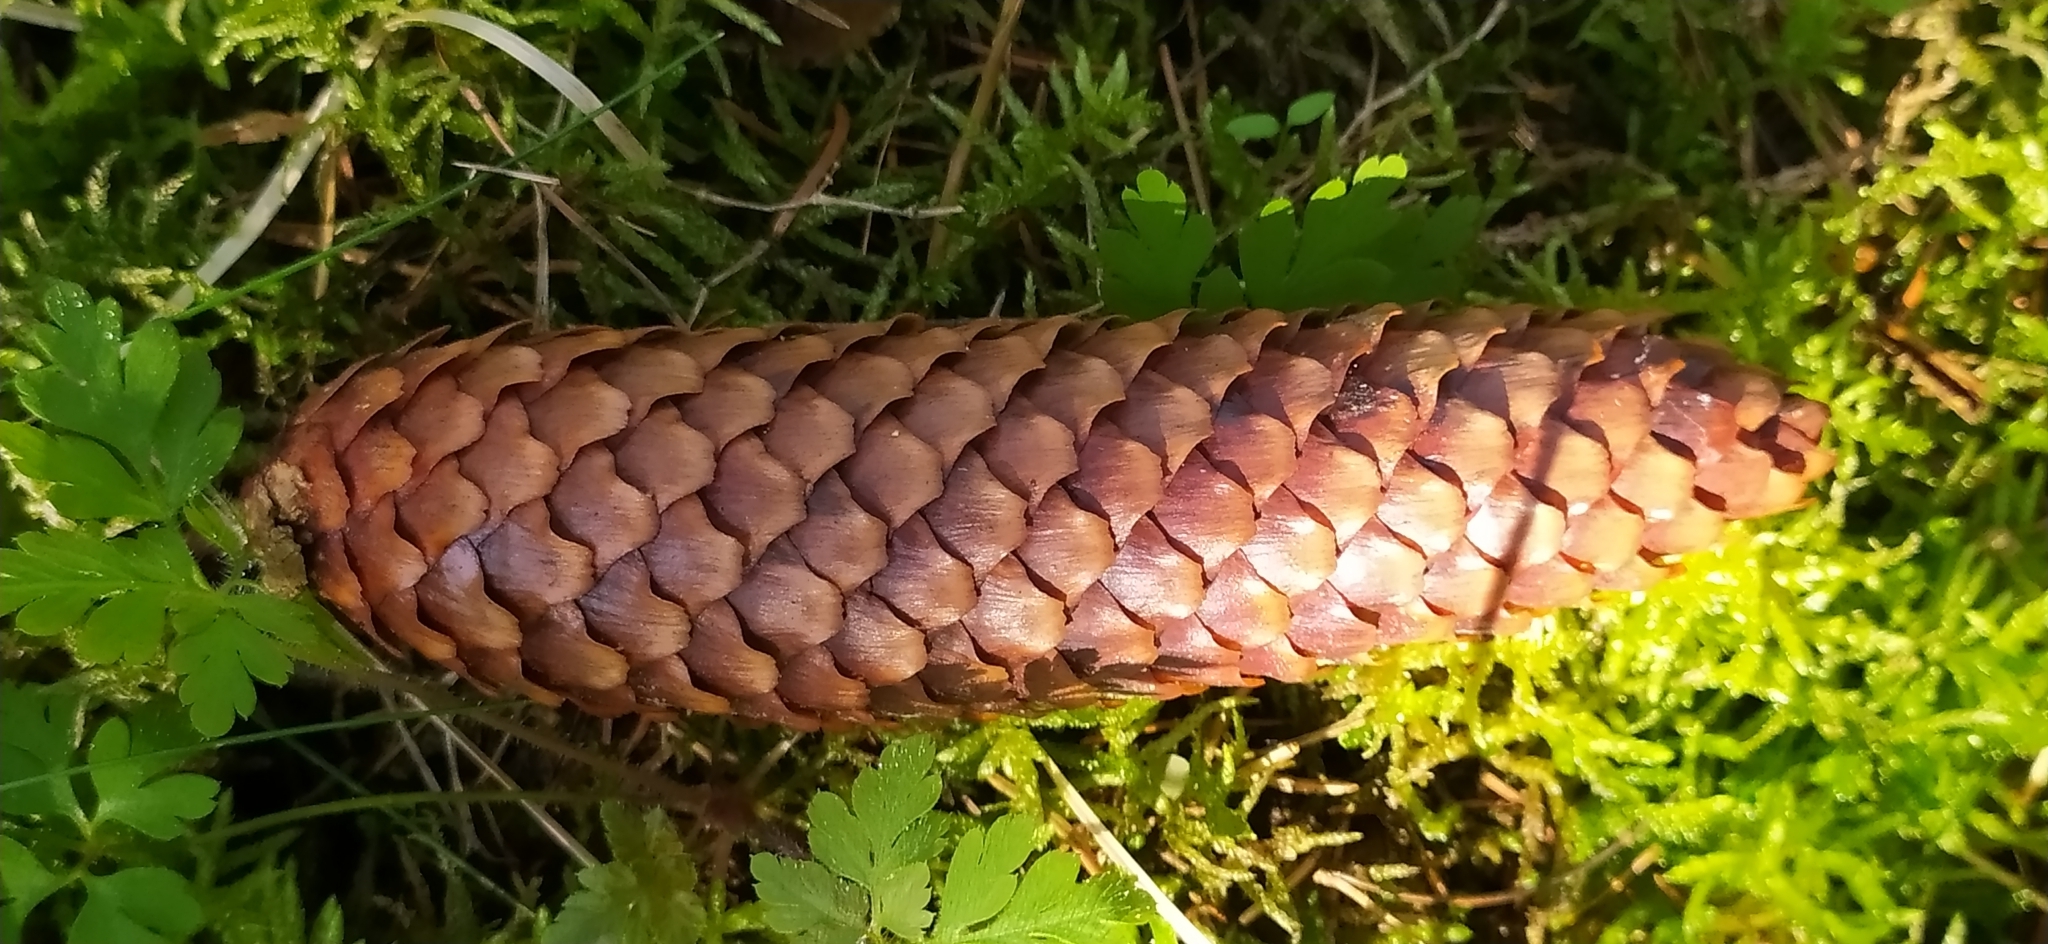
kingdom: Plantae
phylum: Tracheophyta
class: Pinopsida
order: Pinales
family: Pinaceae
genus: Picea
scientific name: Picea abies
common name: Norway spruce
